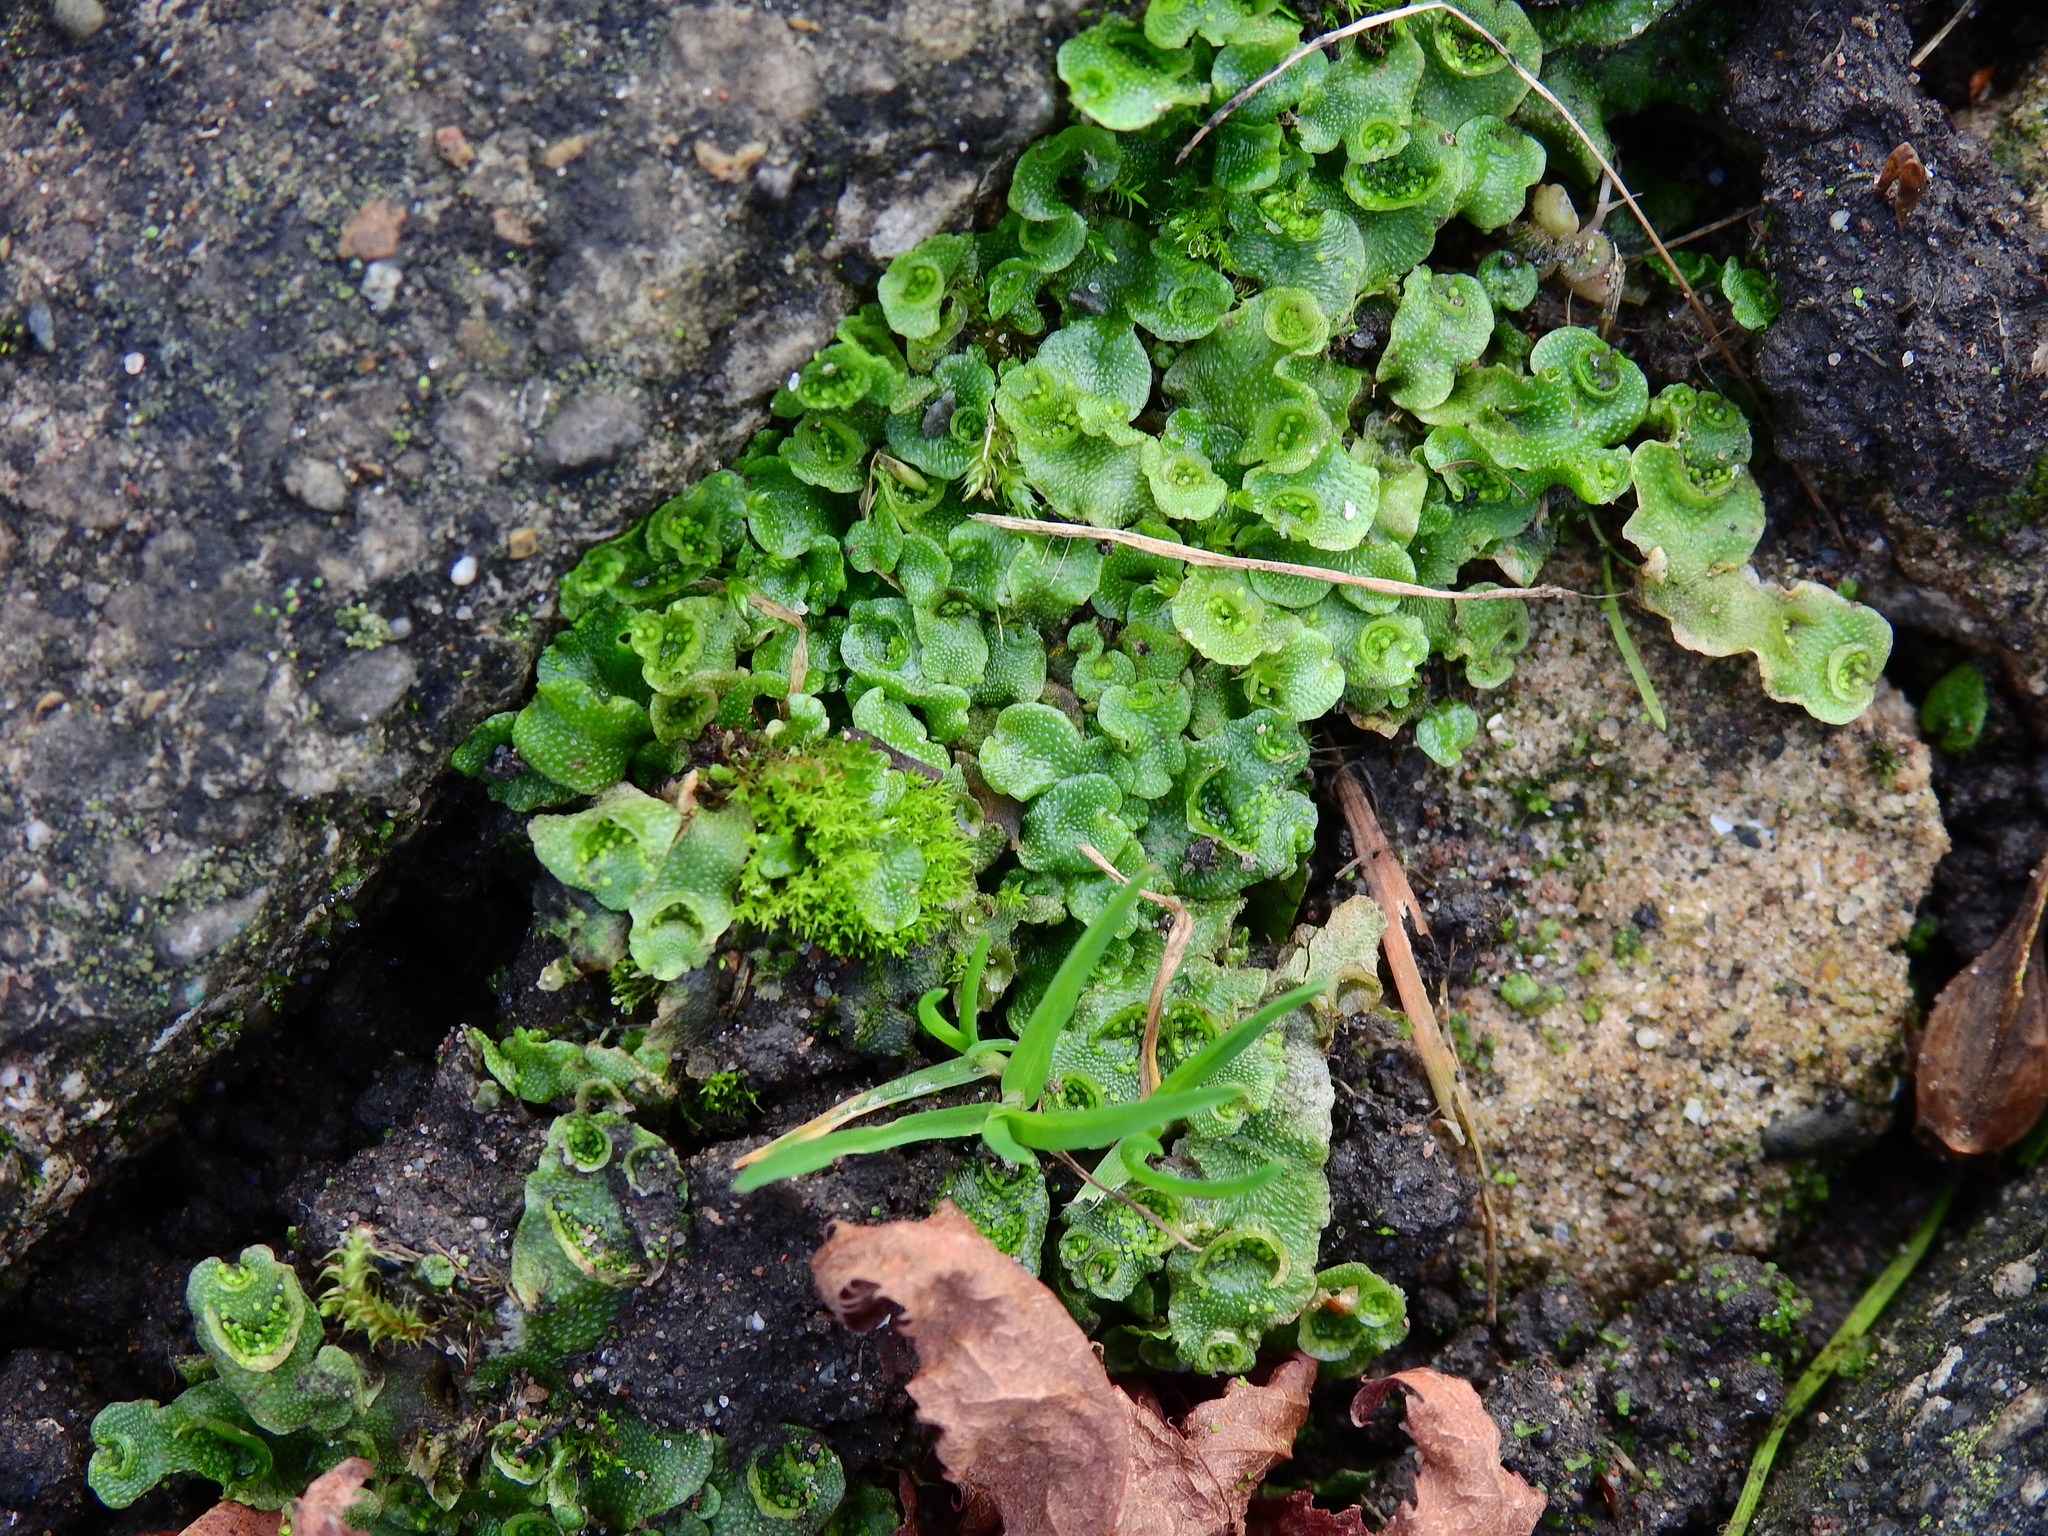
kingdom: Plantae
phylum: Marchantiophyta
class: Marchantiopsida
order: Lunulariales
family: Lunulariaceae
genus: Lunularia
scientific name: Lunularia cruciata
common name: Crescent-cup liverwort
